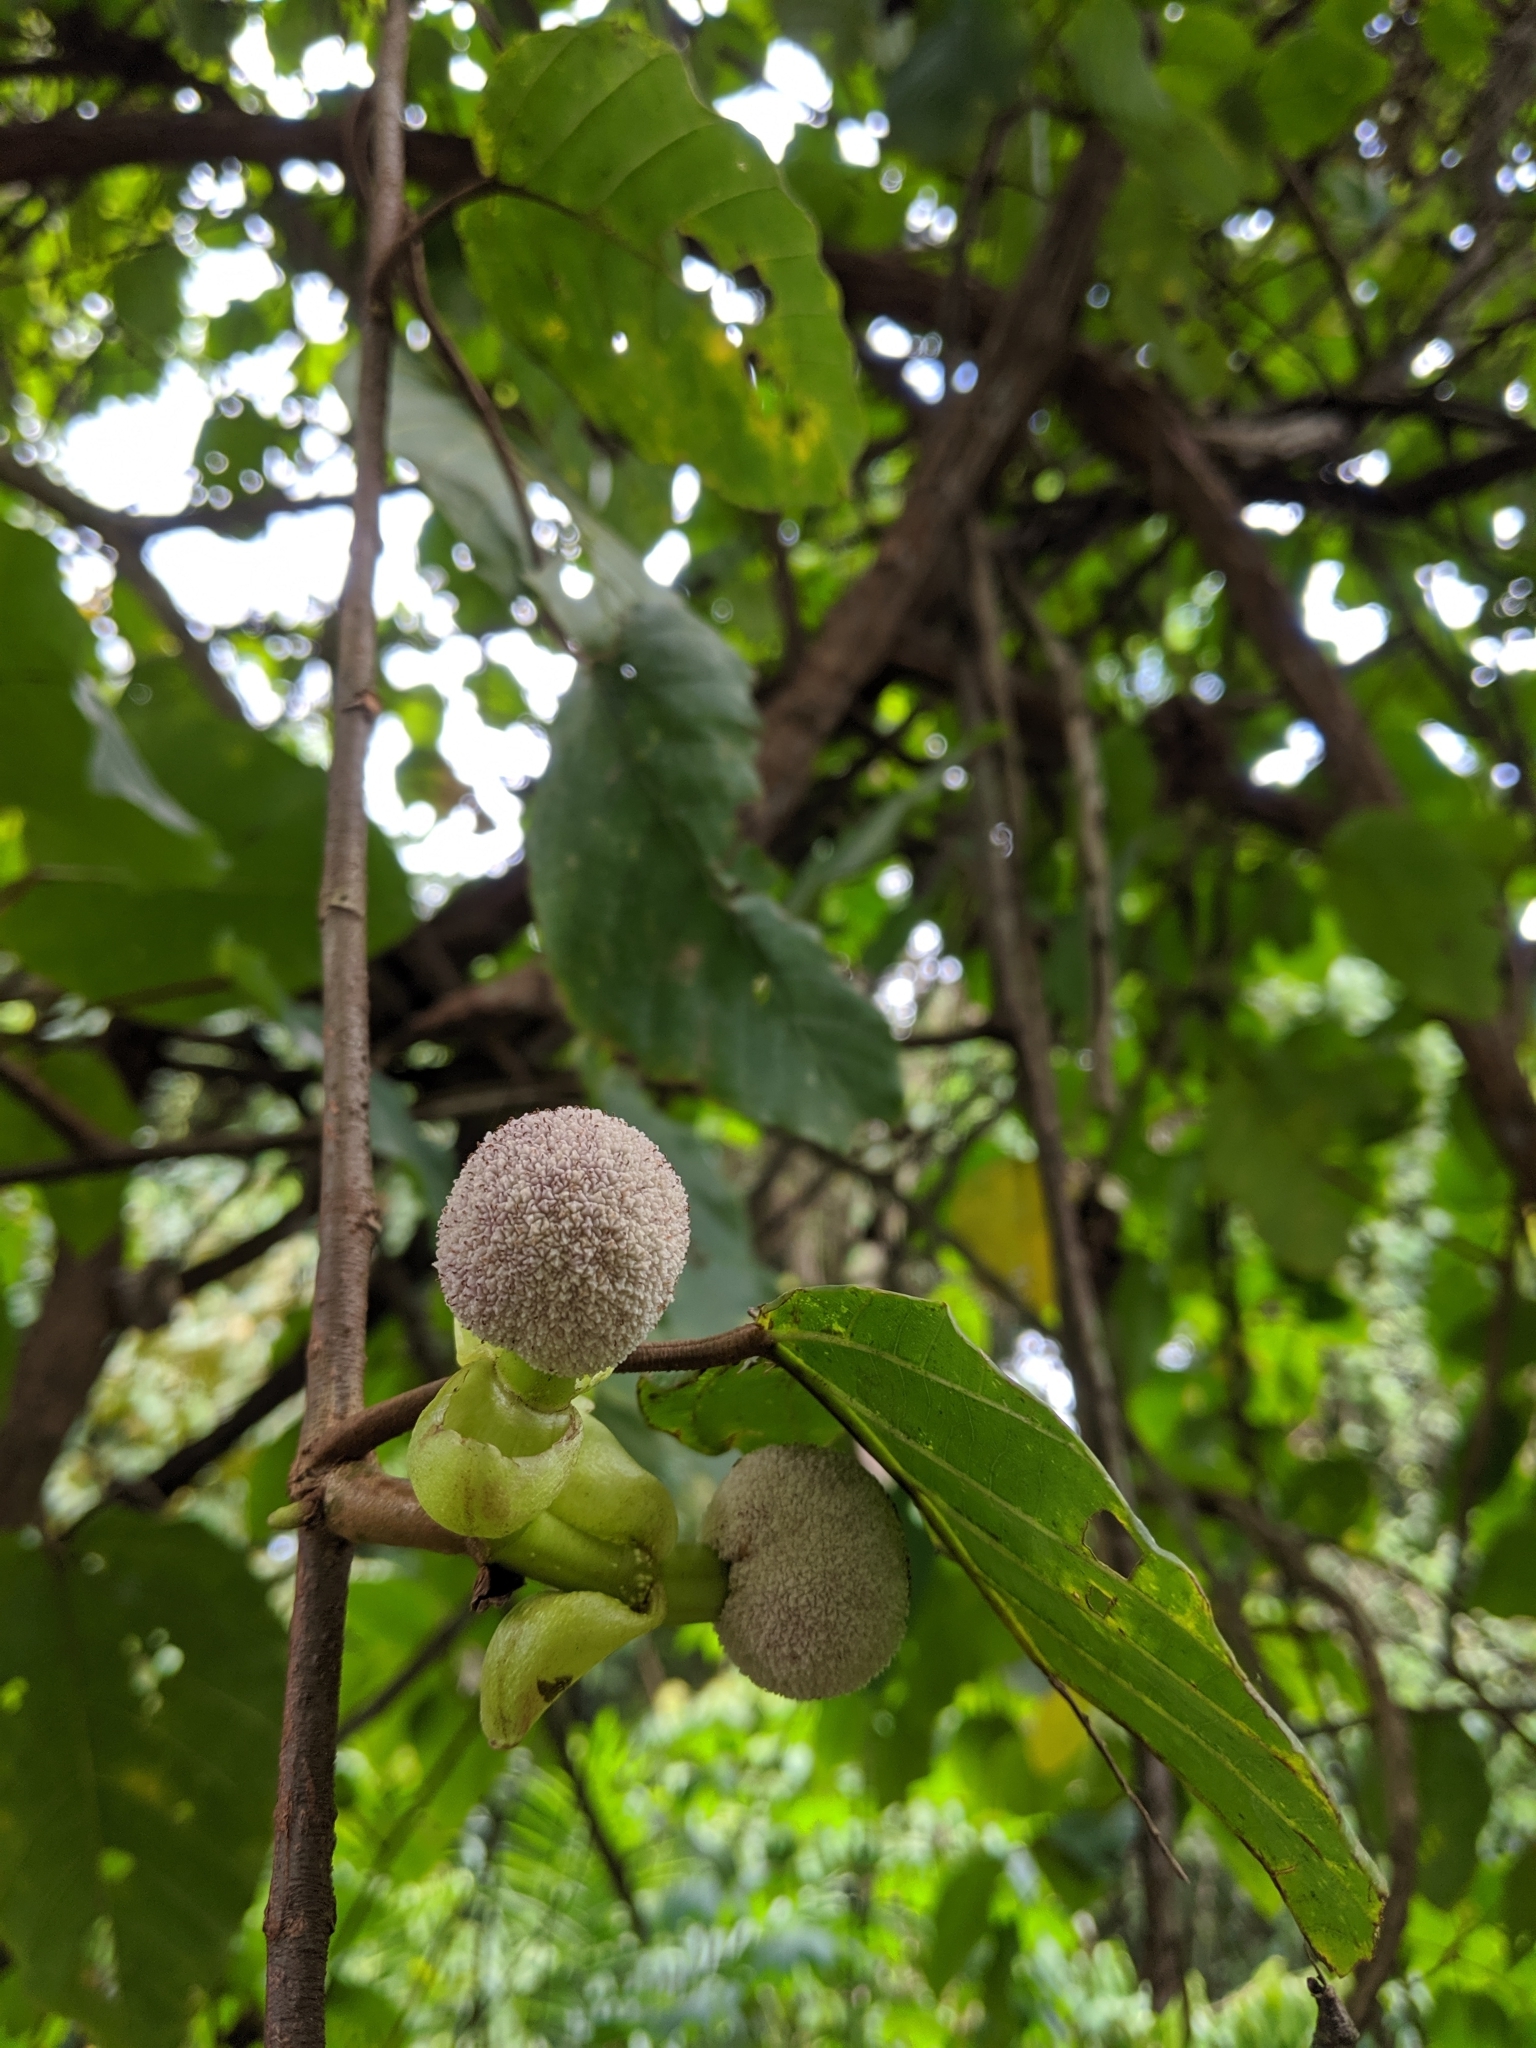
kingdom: Plantae
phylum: Tracheophyta
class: Magnoliopsida
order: Rosales
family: Urticaceae
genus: Poikilospermum
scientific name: Poikilospermum suaveolens
